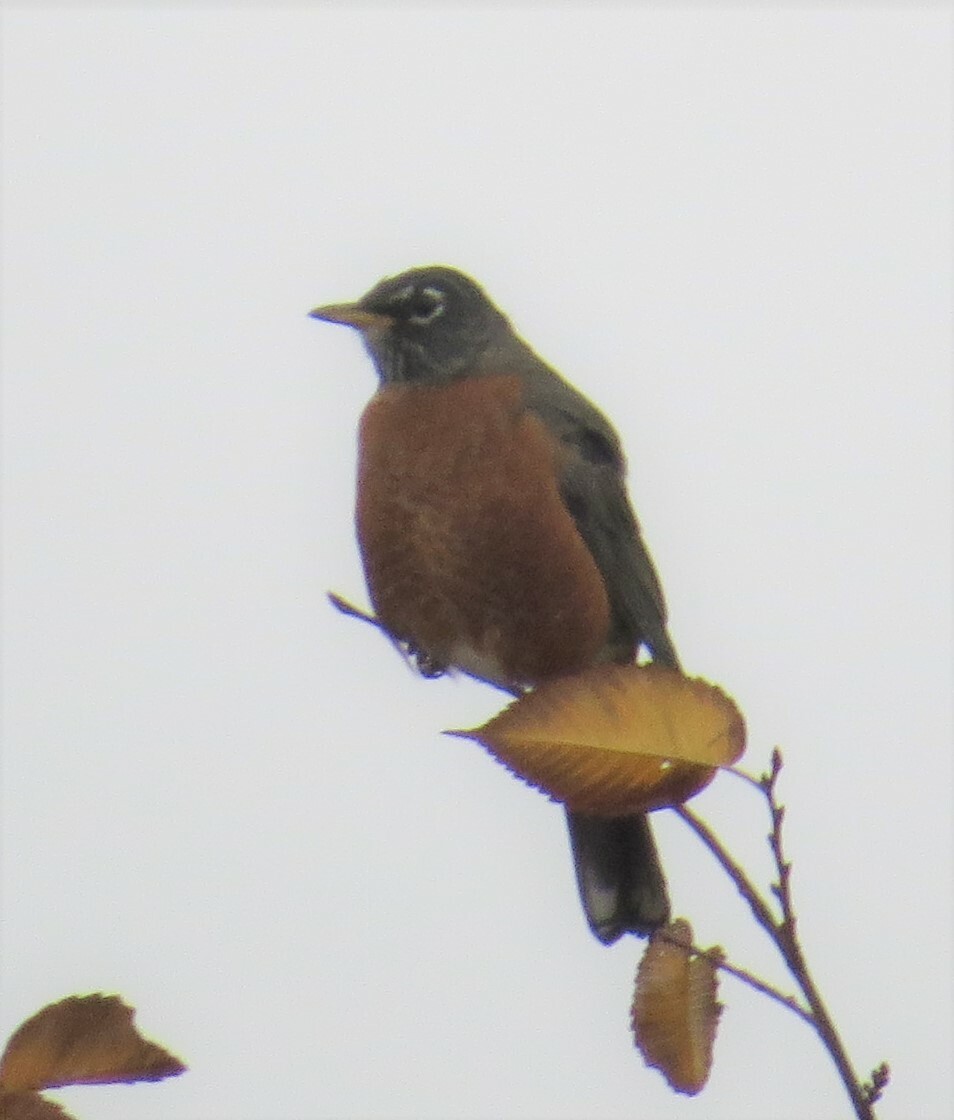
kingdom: Animalia
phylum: Chordata
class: Aves
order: Passeriformes
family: Turdidae
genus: Turdus
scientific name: Turdus migratorius
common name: American robin
